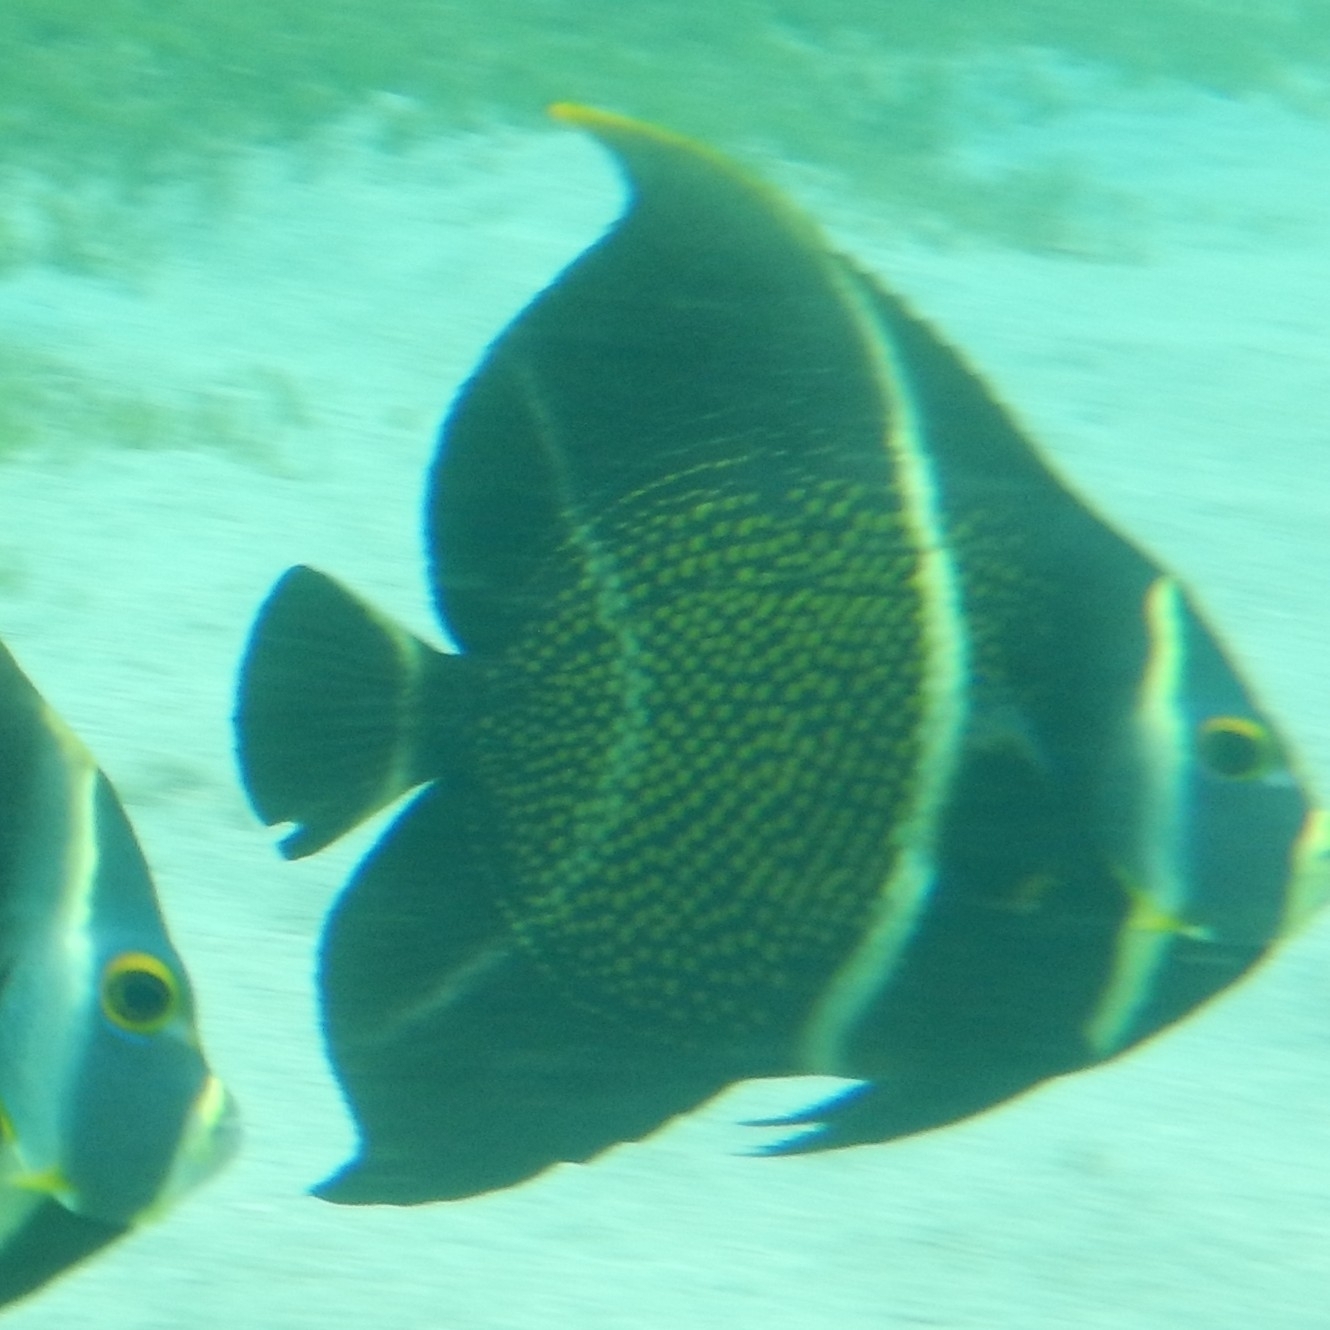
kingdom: Animalia
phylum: Chordata
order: Perciformes
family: Pomacanthidae
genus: Pomacanthus
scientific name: Pomacanthus paru
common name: French angelfish
